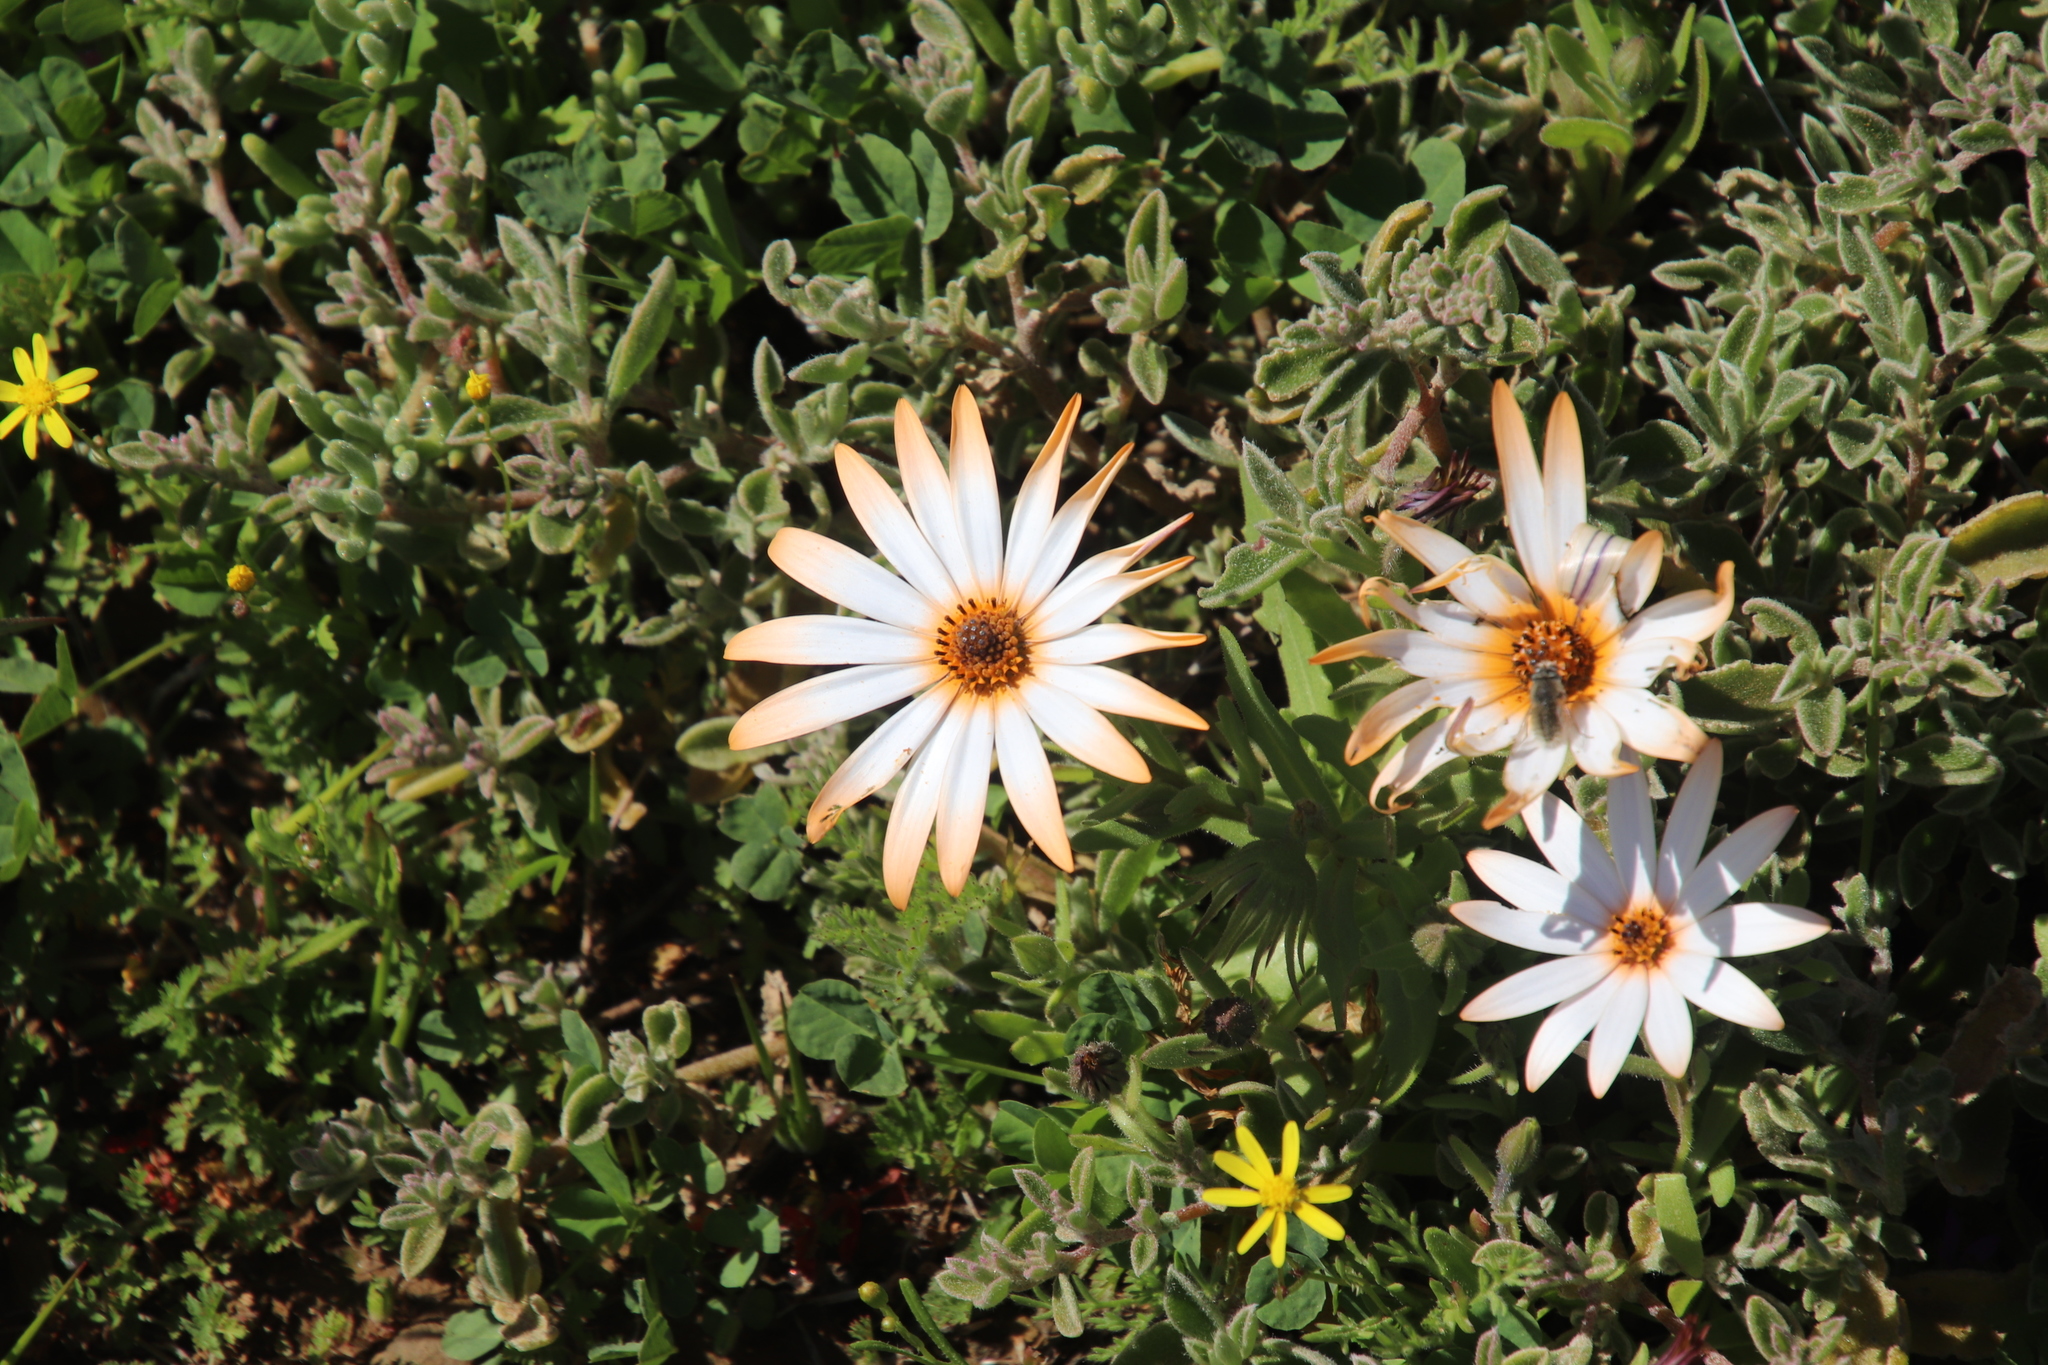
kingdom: Plantae
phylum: Tracheophyta
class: Magnoliopsida
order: Asterales
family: Asteraceae
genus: Dimorphotheca
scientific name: Dimorphotheca sinuata
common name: Glandular cape marigold
